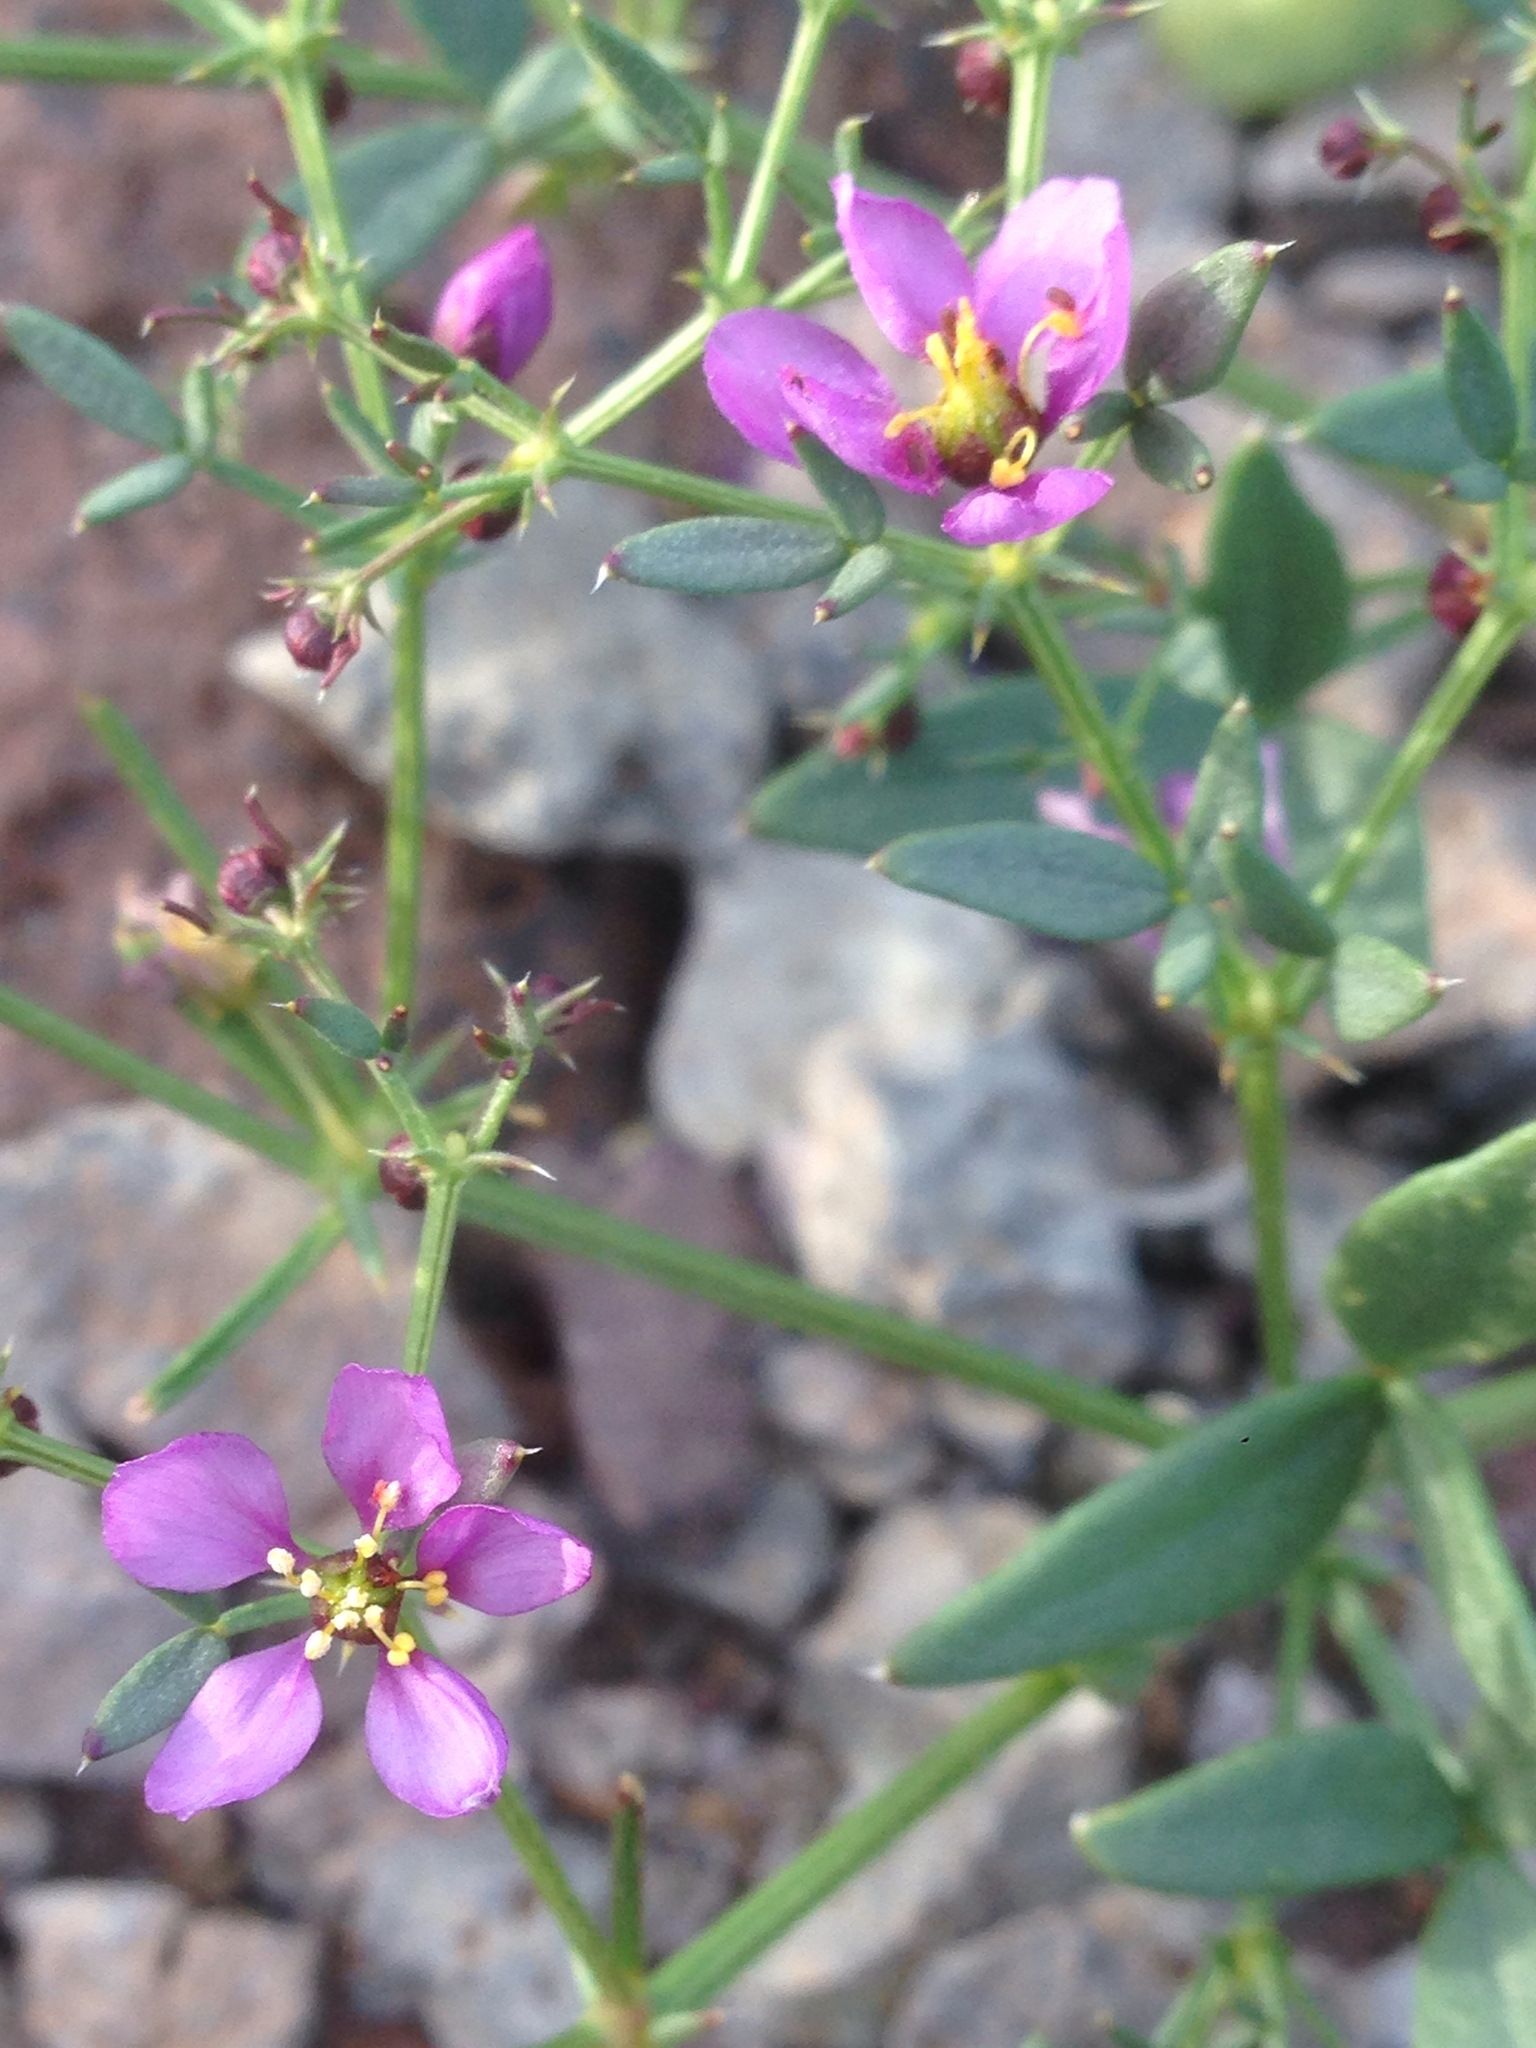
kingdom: Plantae
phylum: Tracheophyta
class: Magnoliopsida
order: Zygophyllales
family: Zygophyllaceae
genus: Fagonia
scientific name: Fagonia laevis
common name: California fagonbush
